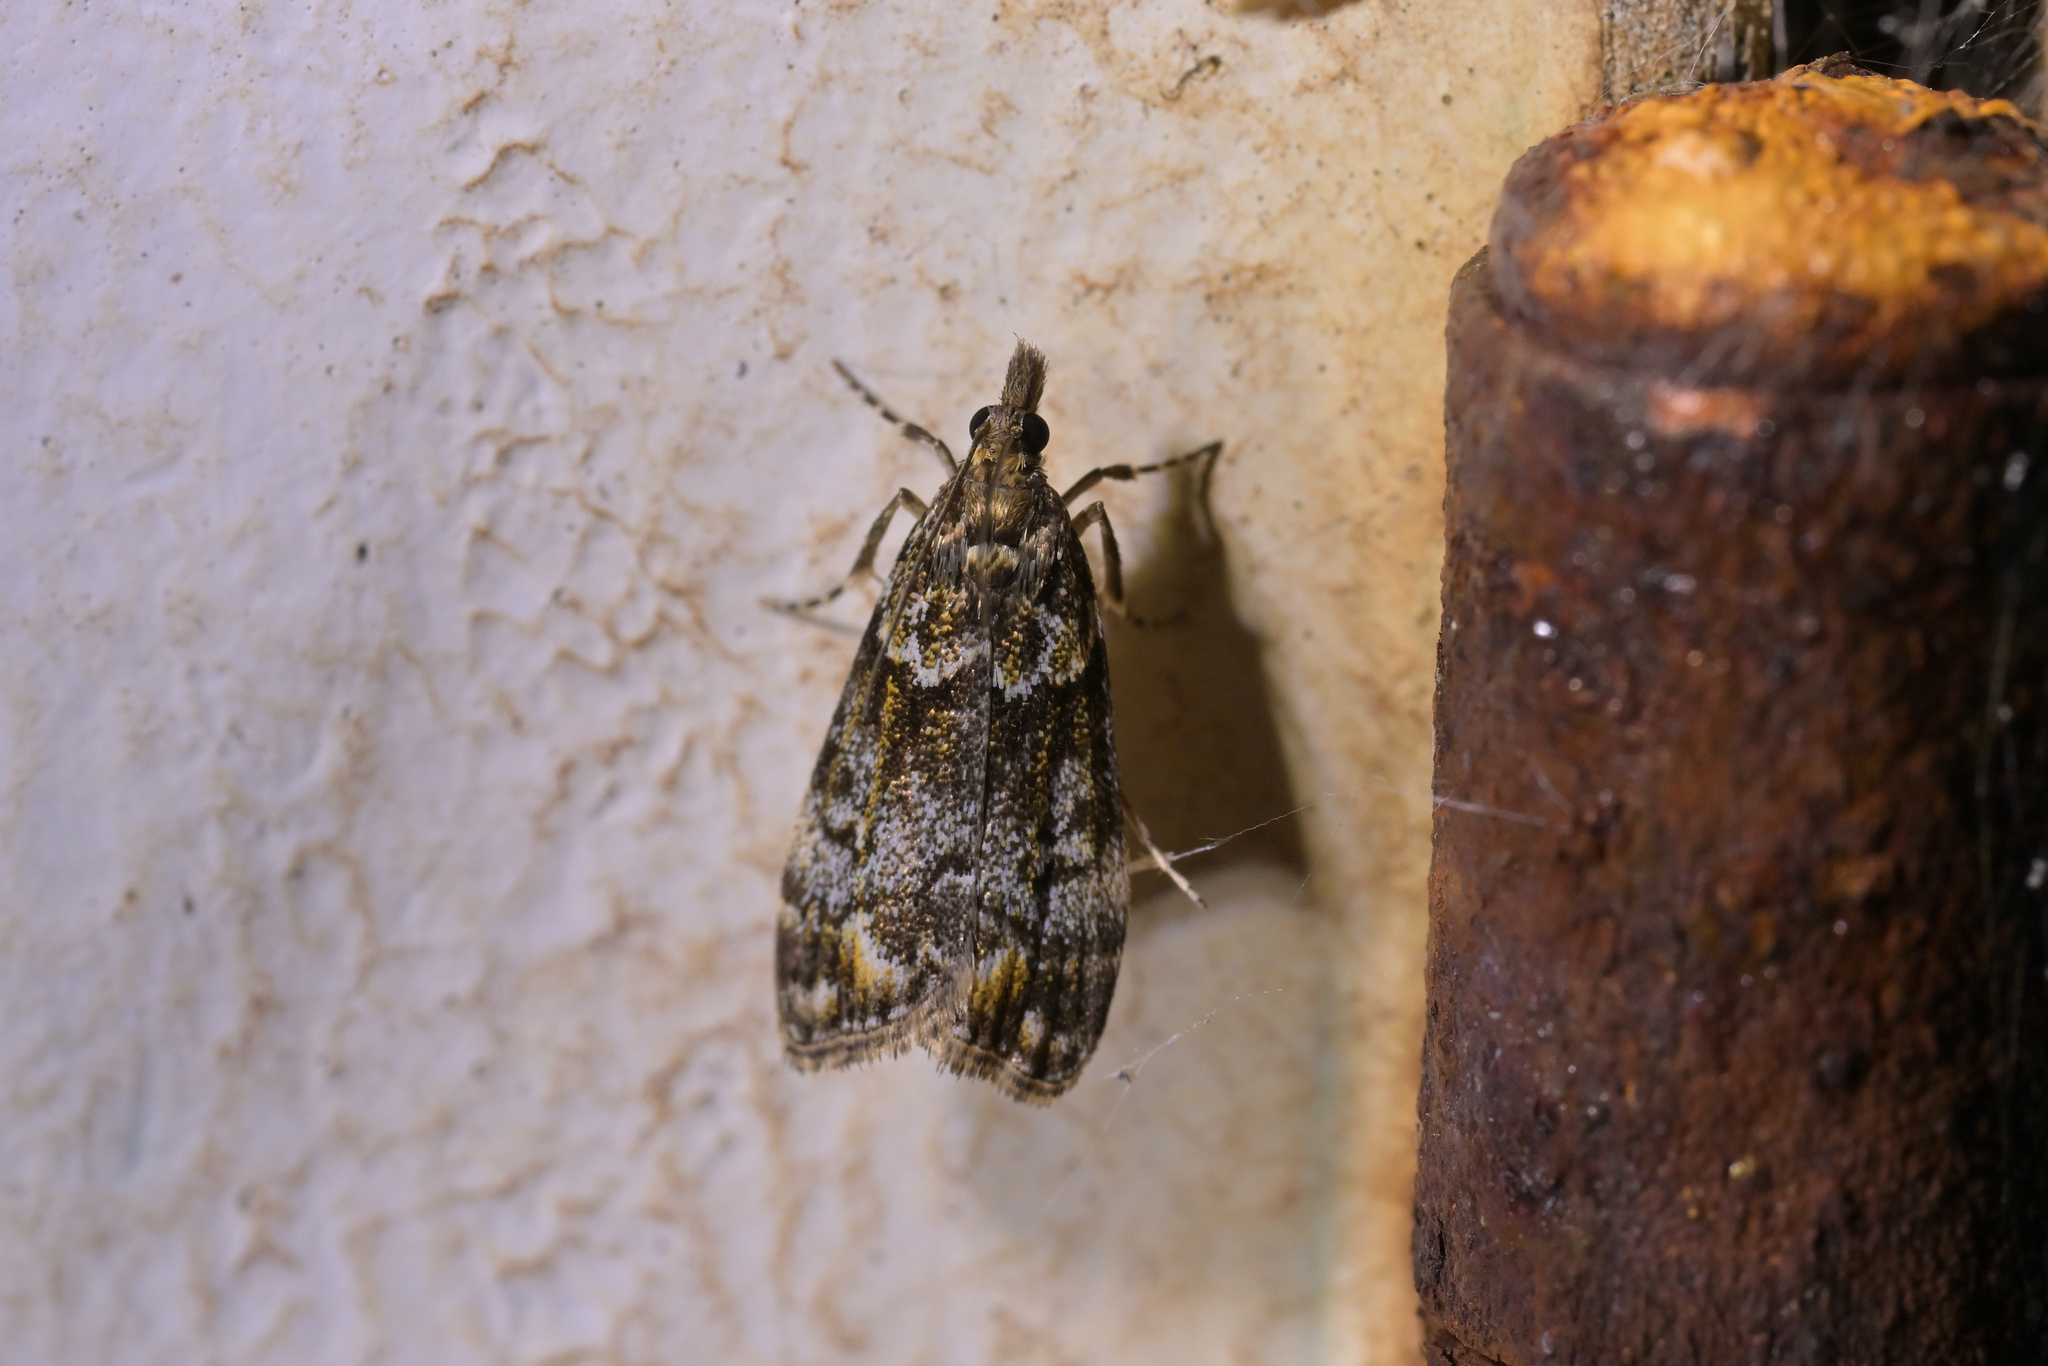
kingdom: Animalia
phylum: Arthropoda
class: Insecta
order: Lepidoptera
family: Crambidae
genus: Eudonia
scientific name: Eudonia minualis
